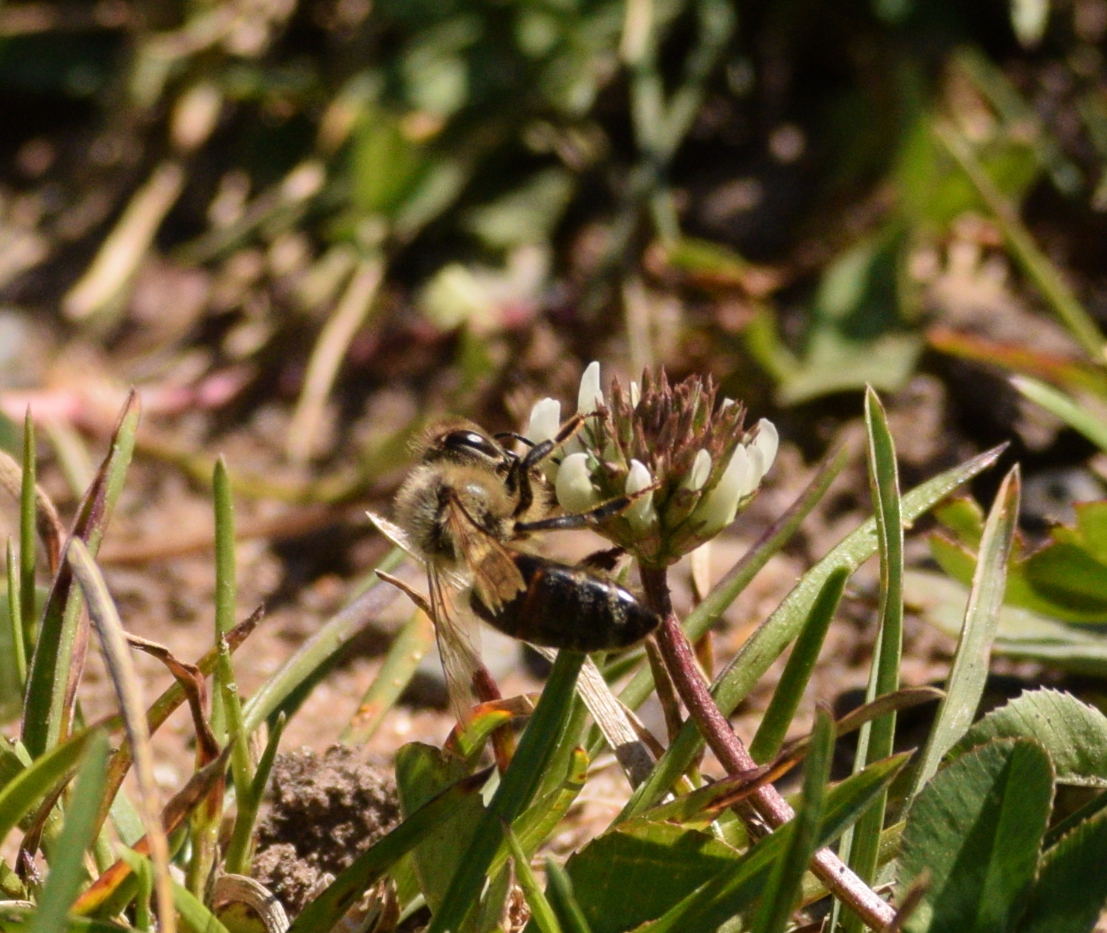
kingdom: Animalia
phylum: Arthropoda
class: Insecta
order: Hymenoptera
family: Apidae
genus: Apis
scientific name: Apis mellifera
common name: Honey bee
